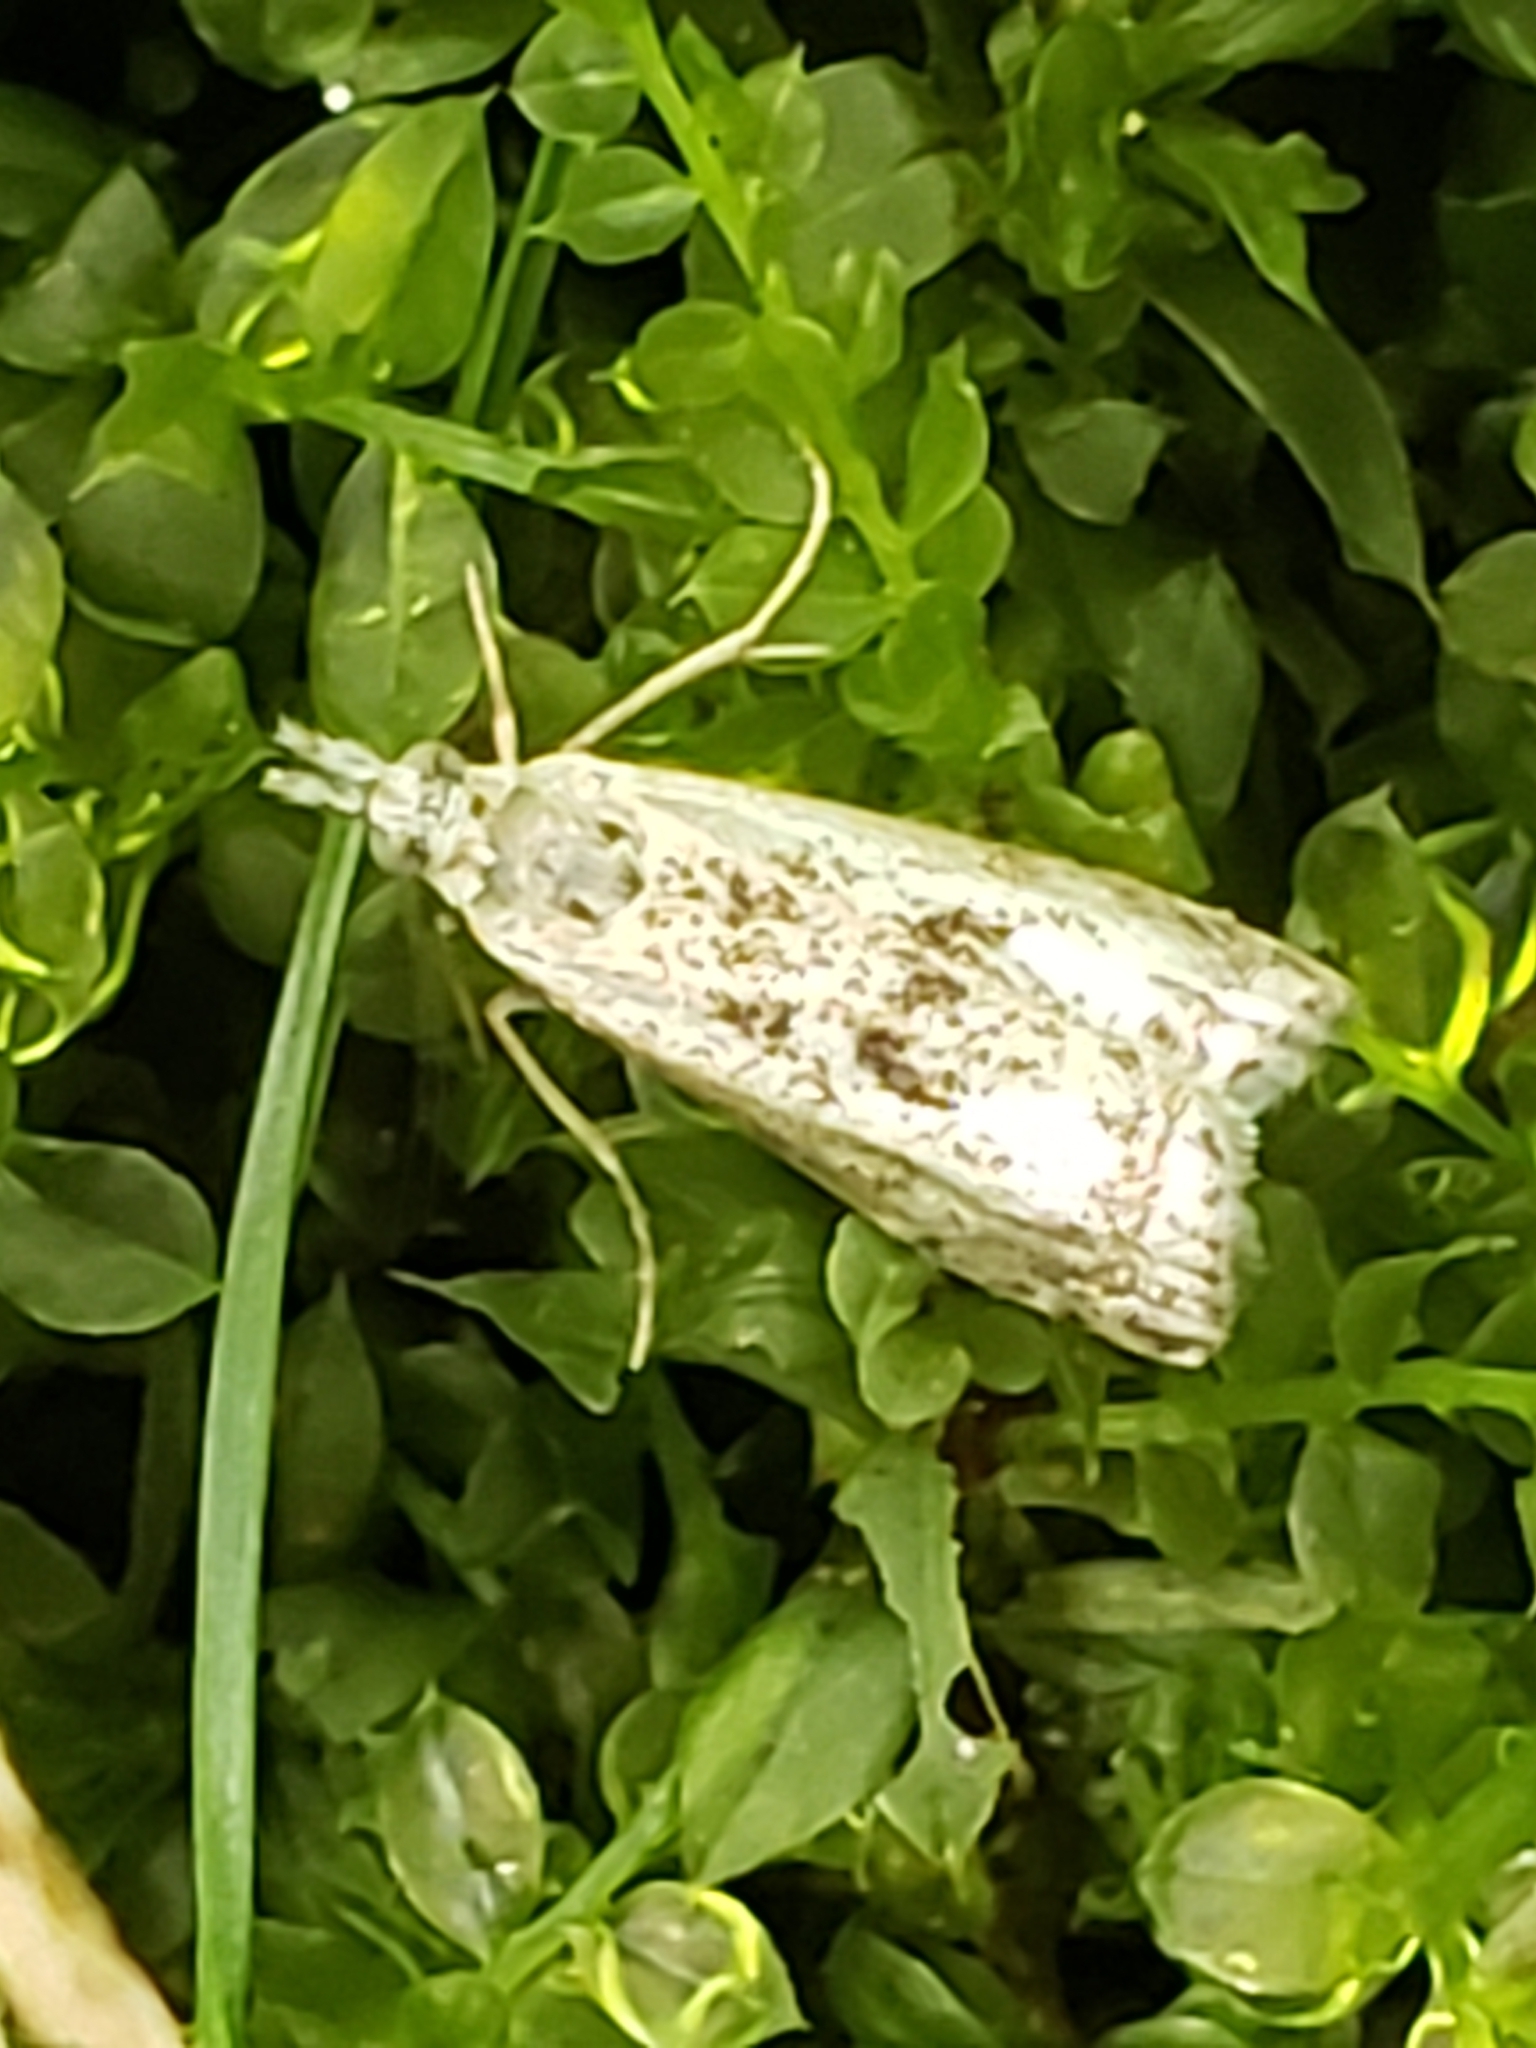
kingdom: Animalia
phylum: Arthropoda
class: Insecta
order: Lepidoptera
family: Crambidae
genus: Microcrambus
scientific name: Microcrambus elegans
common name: Elegant grass-veneer
